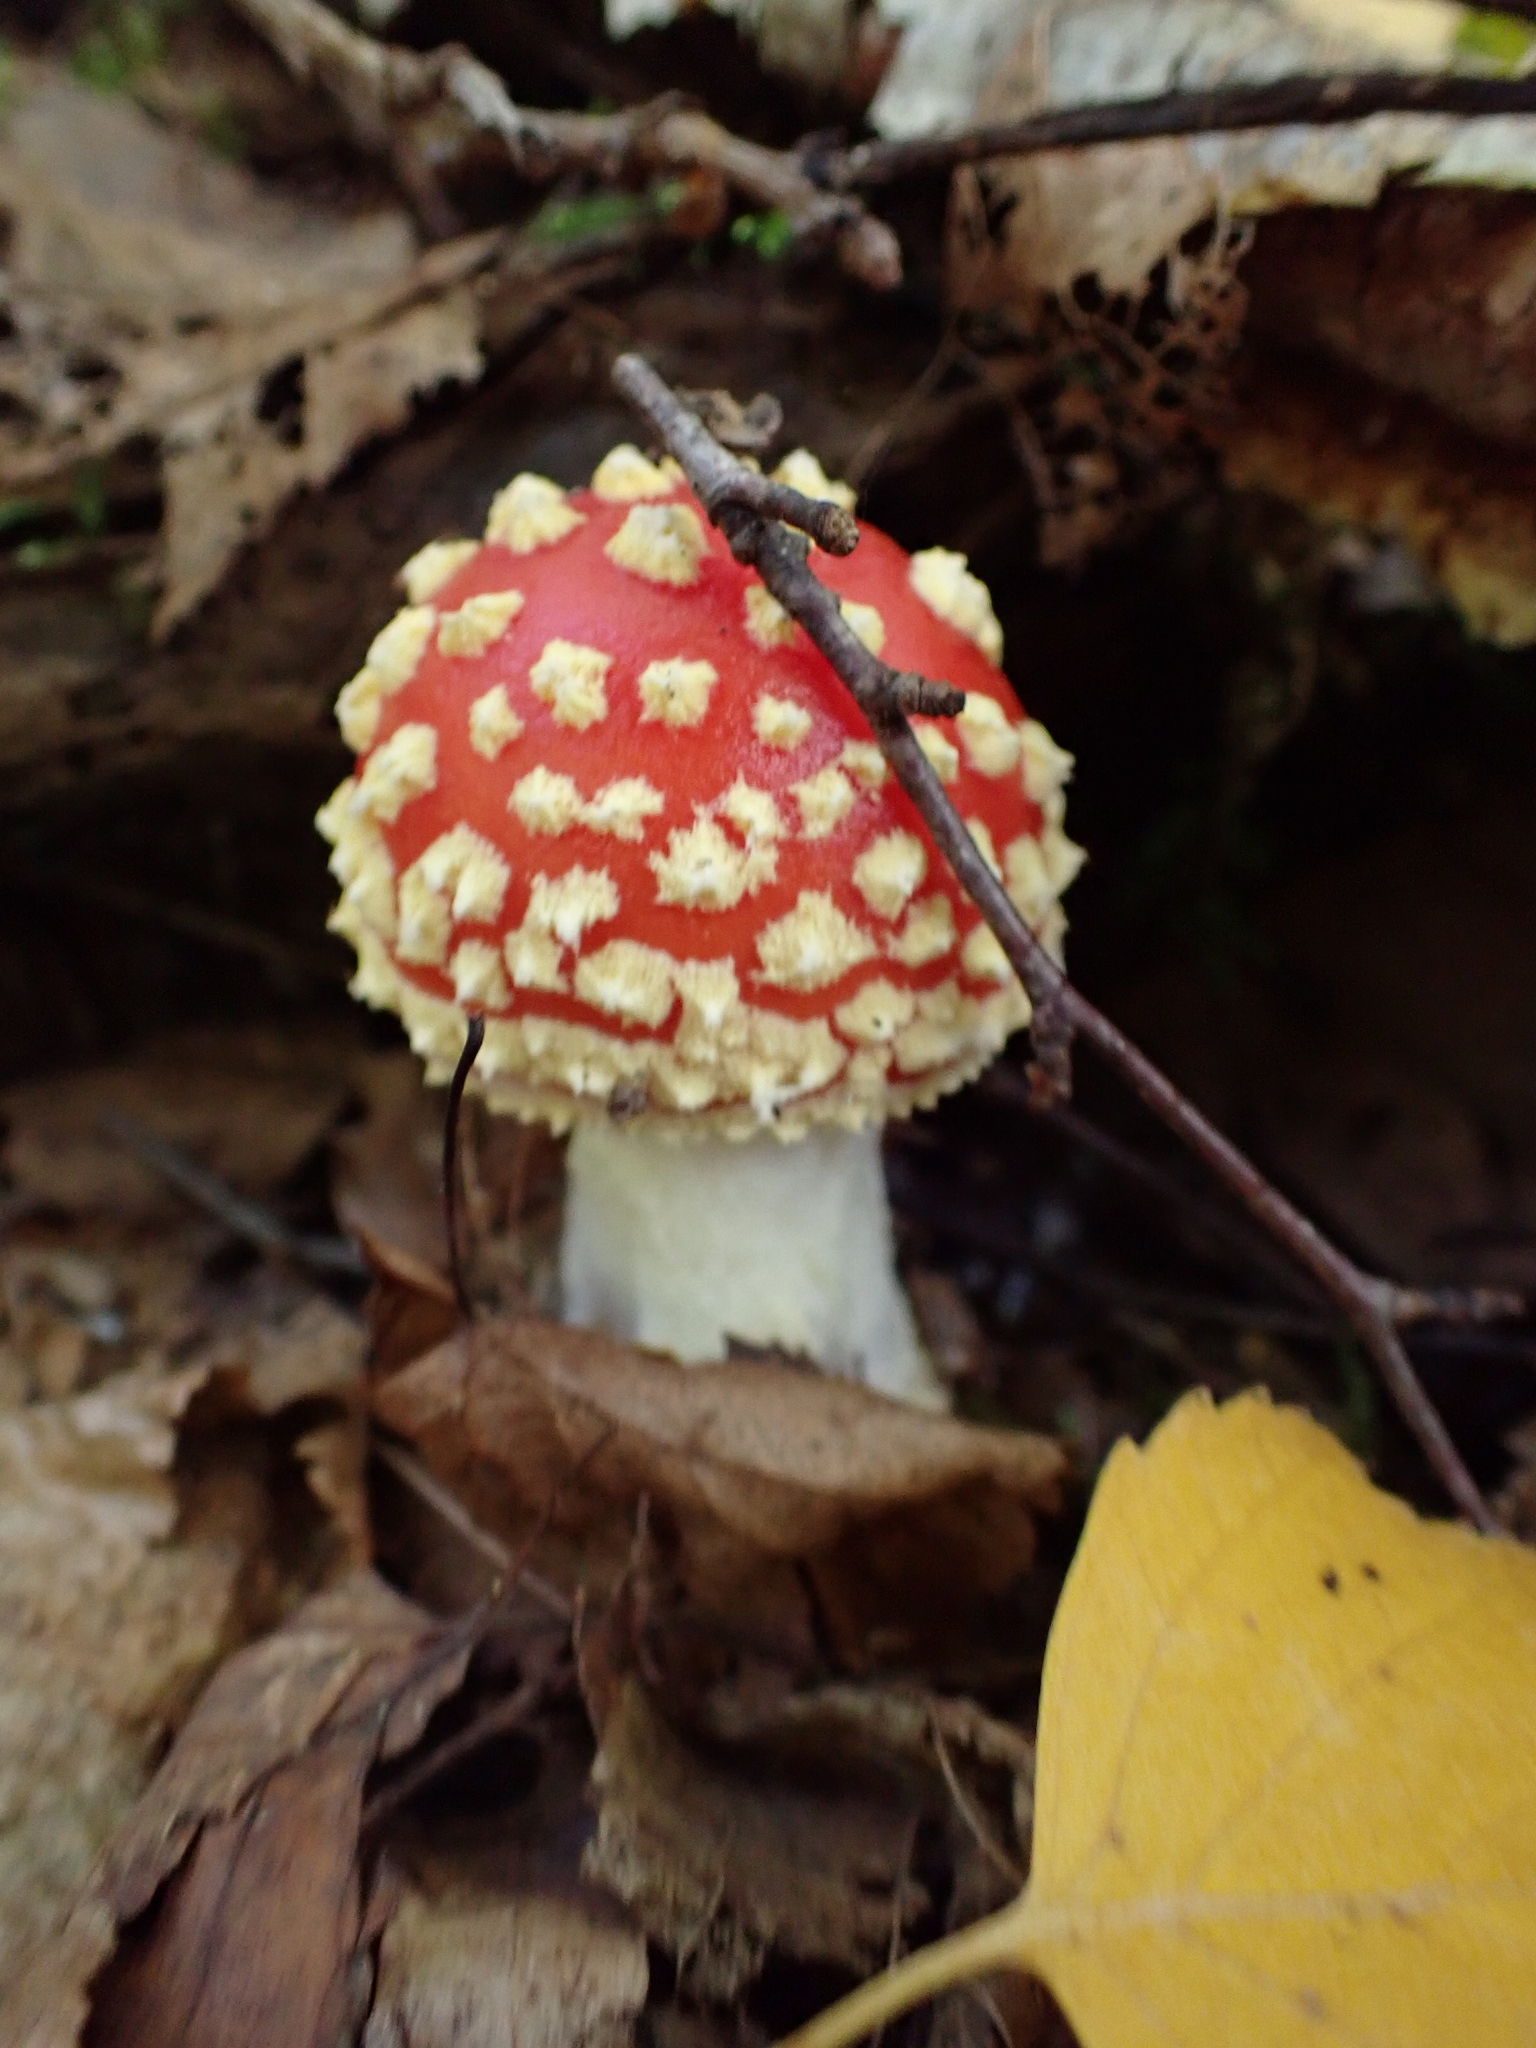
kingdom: Fungi
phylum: Basidiomycota
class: Agaricomycetes
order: Agaricales
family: Amanitaceae
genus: Amanita
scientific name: Amanita muscaria
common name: Fly agaric
